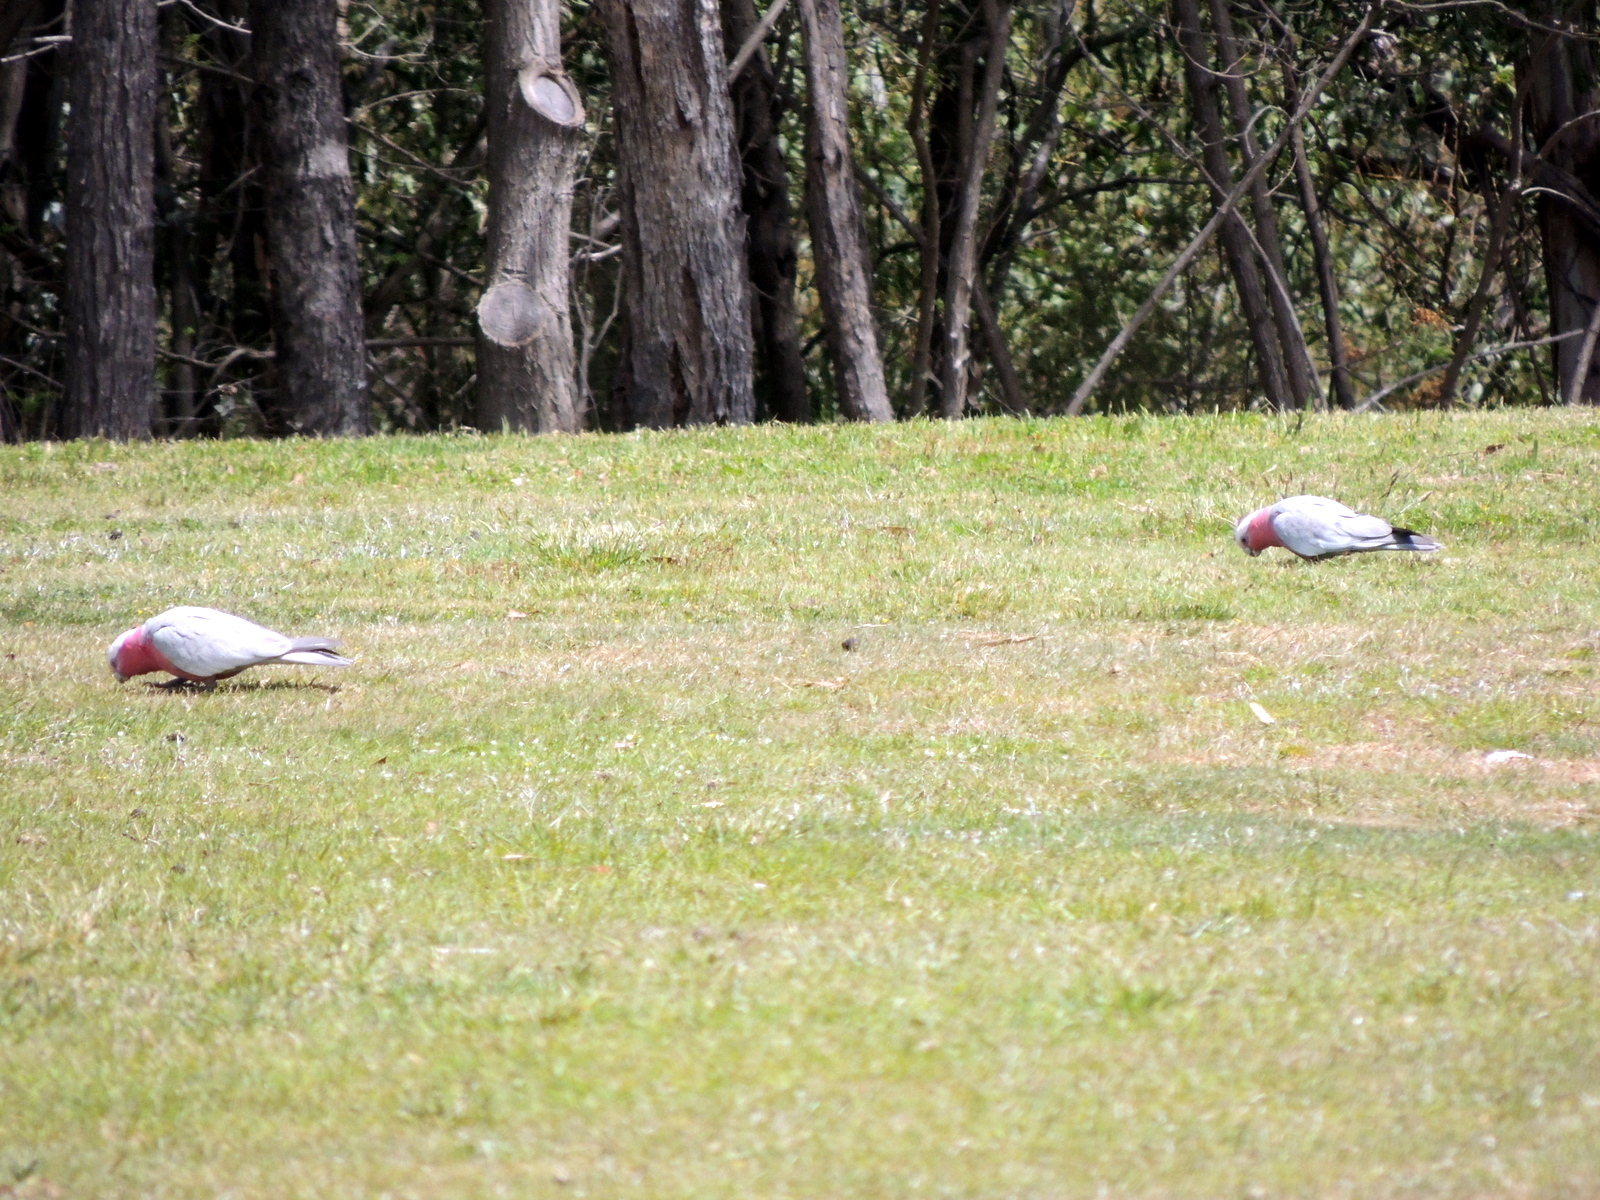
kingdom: Animalia
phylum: Chordata
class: Aves
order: Psittaciformes
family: Psittacidae
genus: Eolophus
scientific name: Eolophus roseicapilla
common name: Galah
